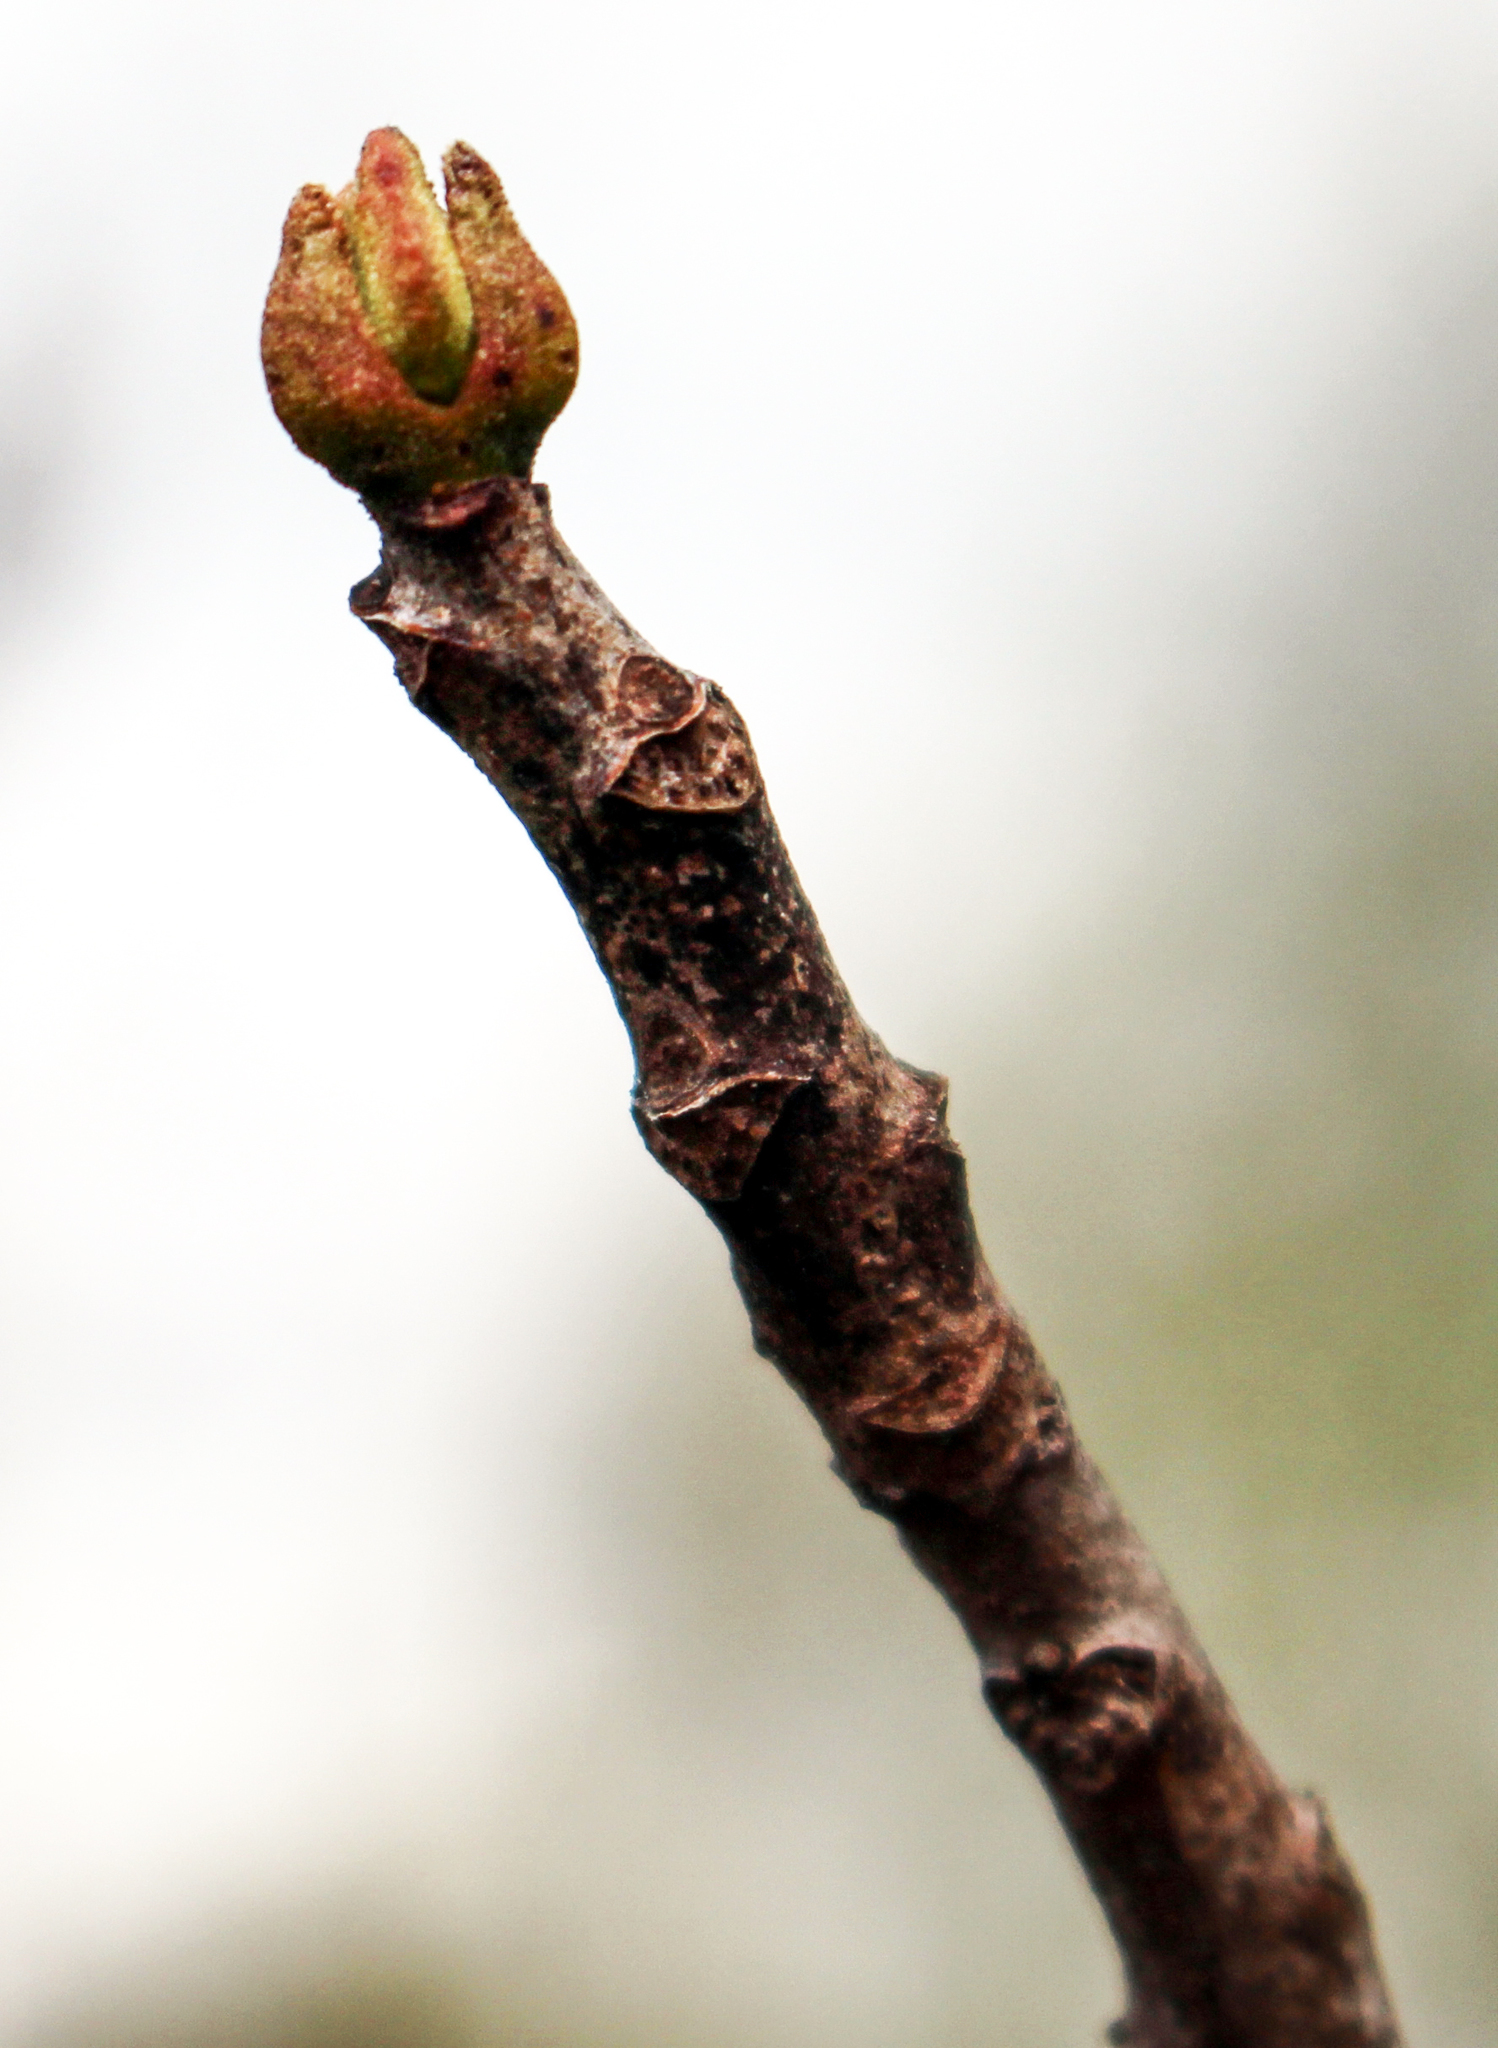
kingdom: Plantae
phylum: Tracheophyta
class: Magnoliopsida
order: Sapindales
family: Anacardiaceae
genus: Toxicodendron
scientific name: Toxicodendron vernix
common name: Poison sumac
